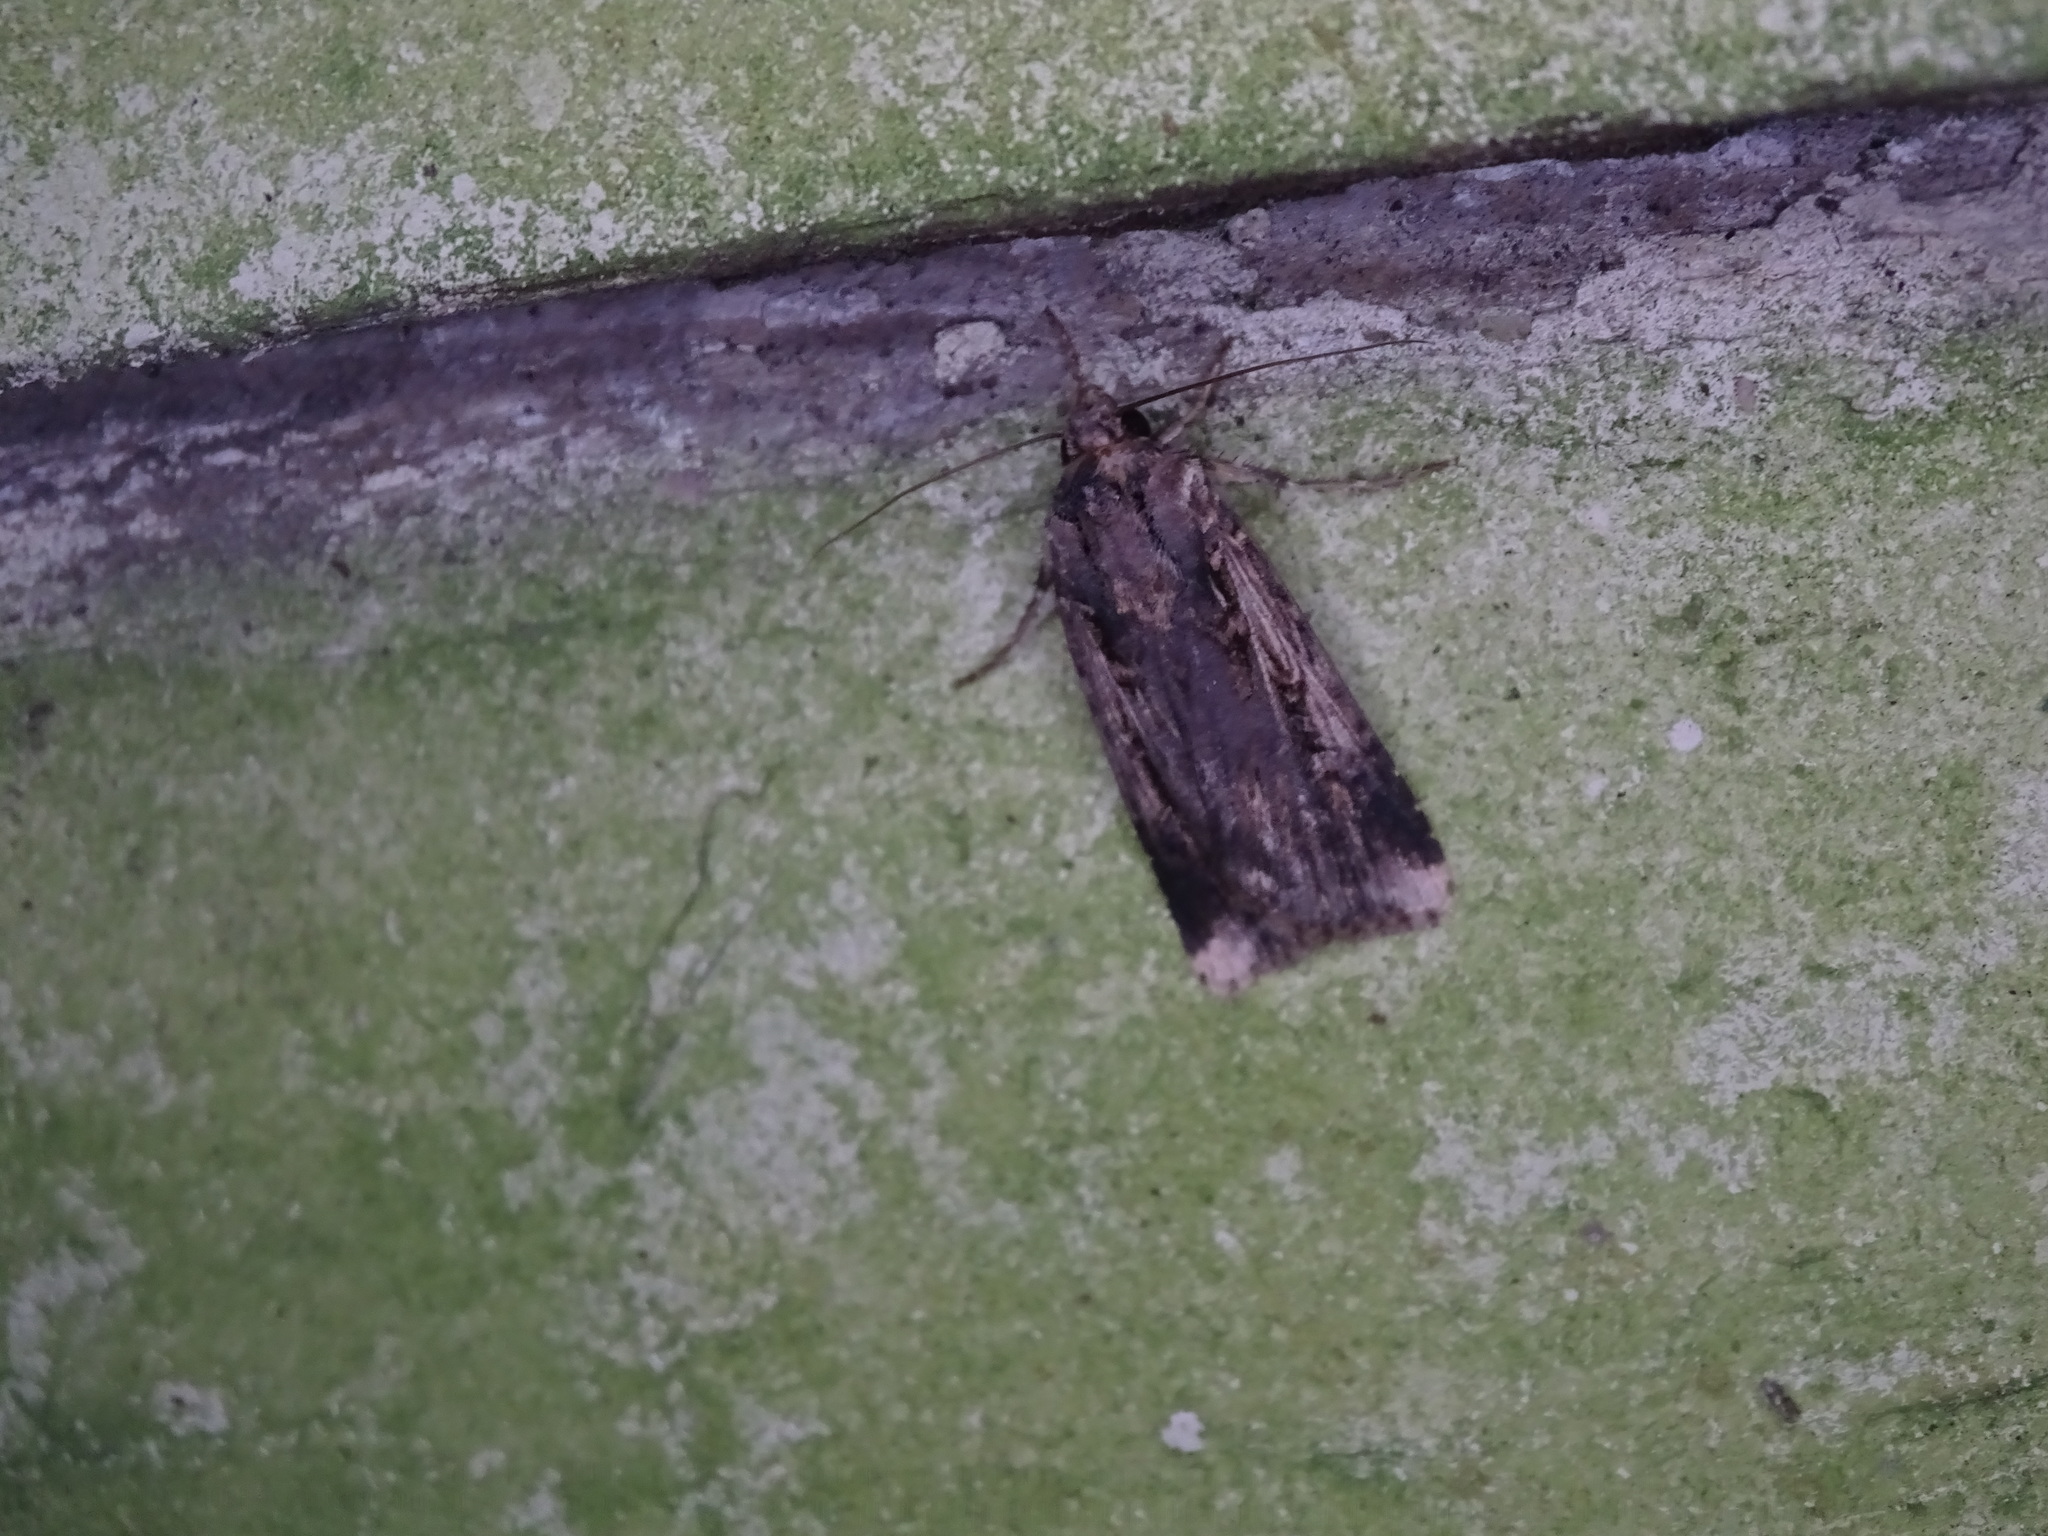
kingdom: Animalia
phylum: Arthropoda
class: Insecta
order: Lepidoptera
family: Noctuidae
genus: Feltia
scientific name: Feltia subterranea
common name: Granulate cutworm
